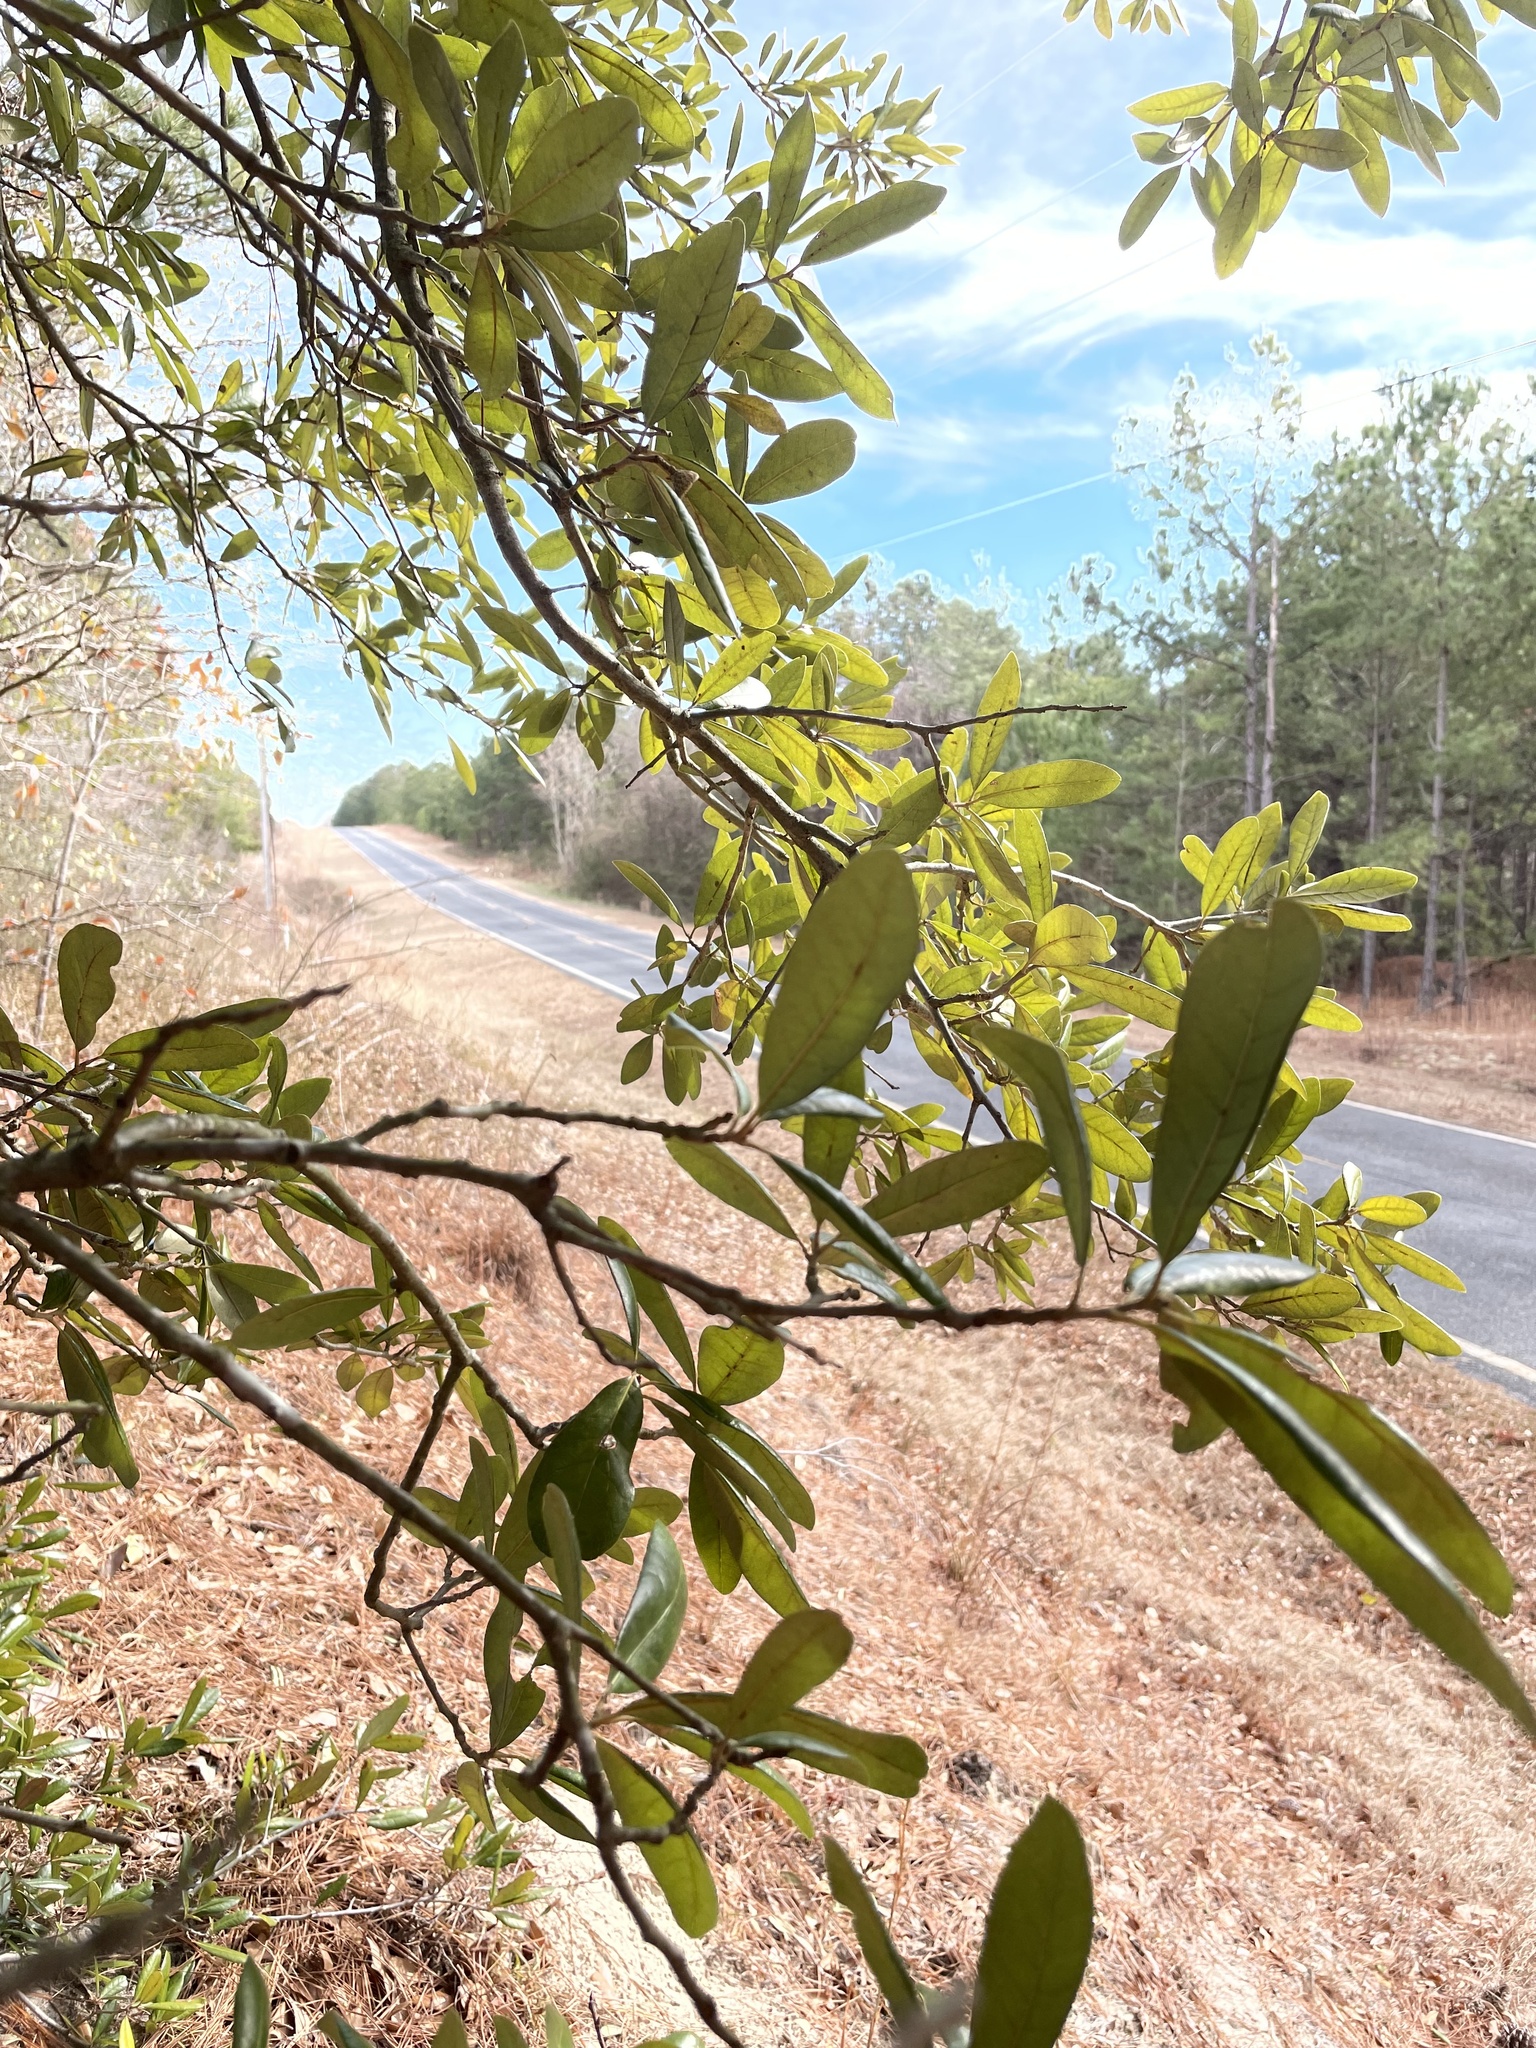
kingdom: Plantae
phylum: Tracheophyta
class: Magnoliopsida
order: Fagales
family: Fagaceae
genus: Quercus
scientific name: Quercus virginiana
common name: Southern live oak
